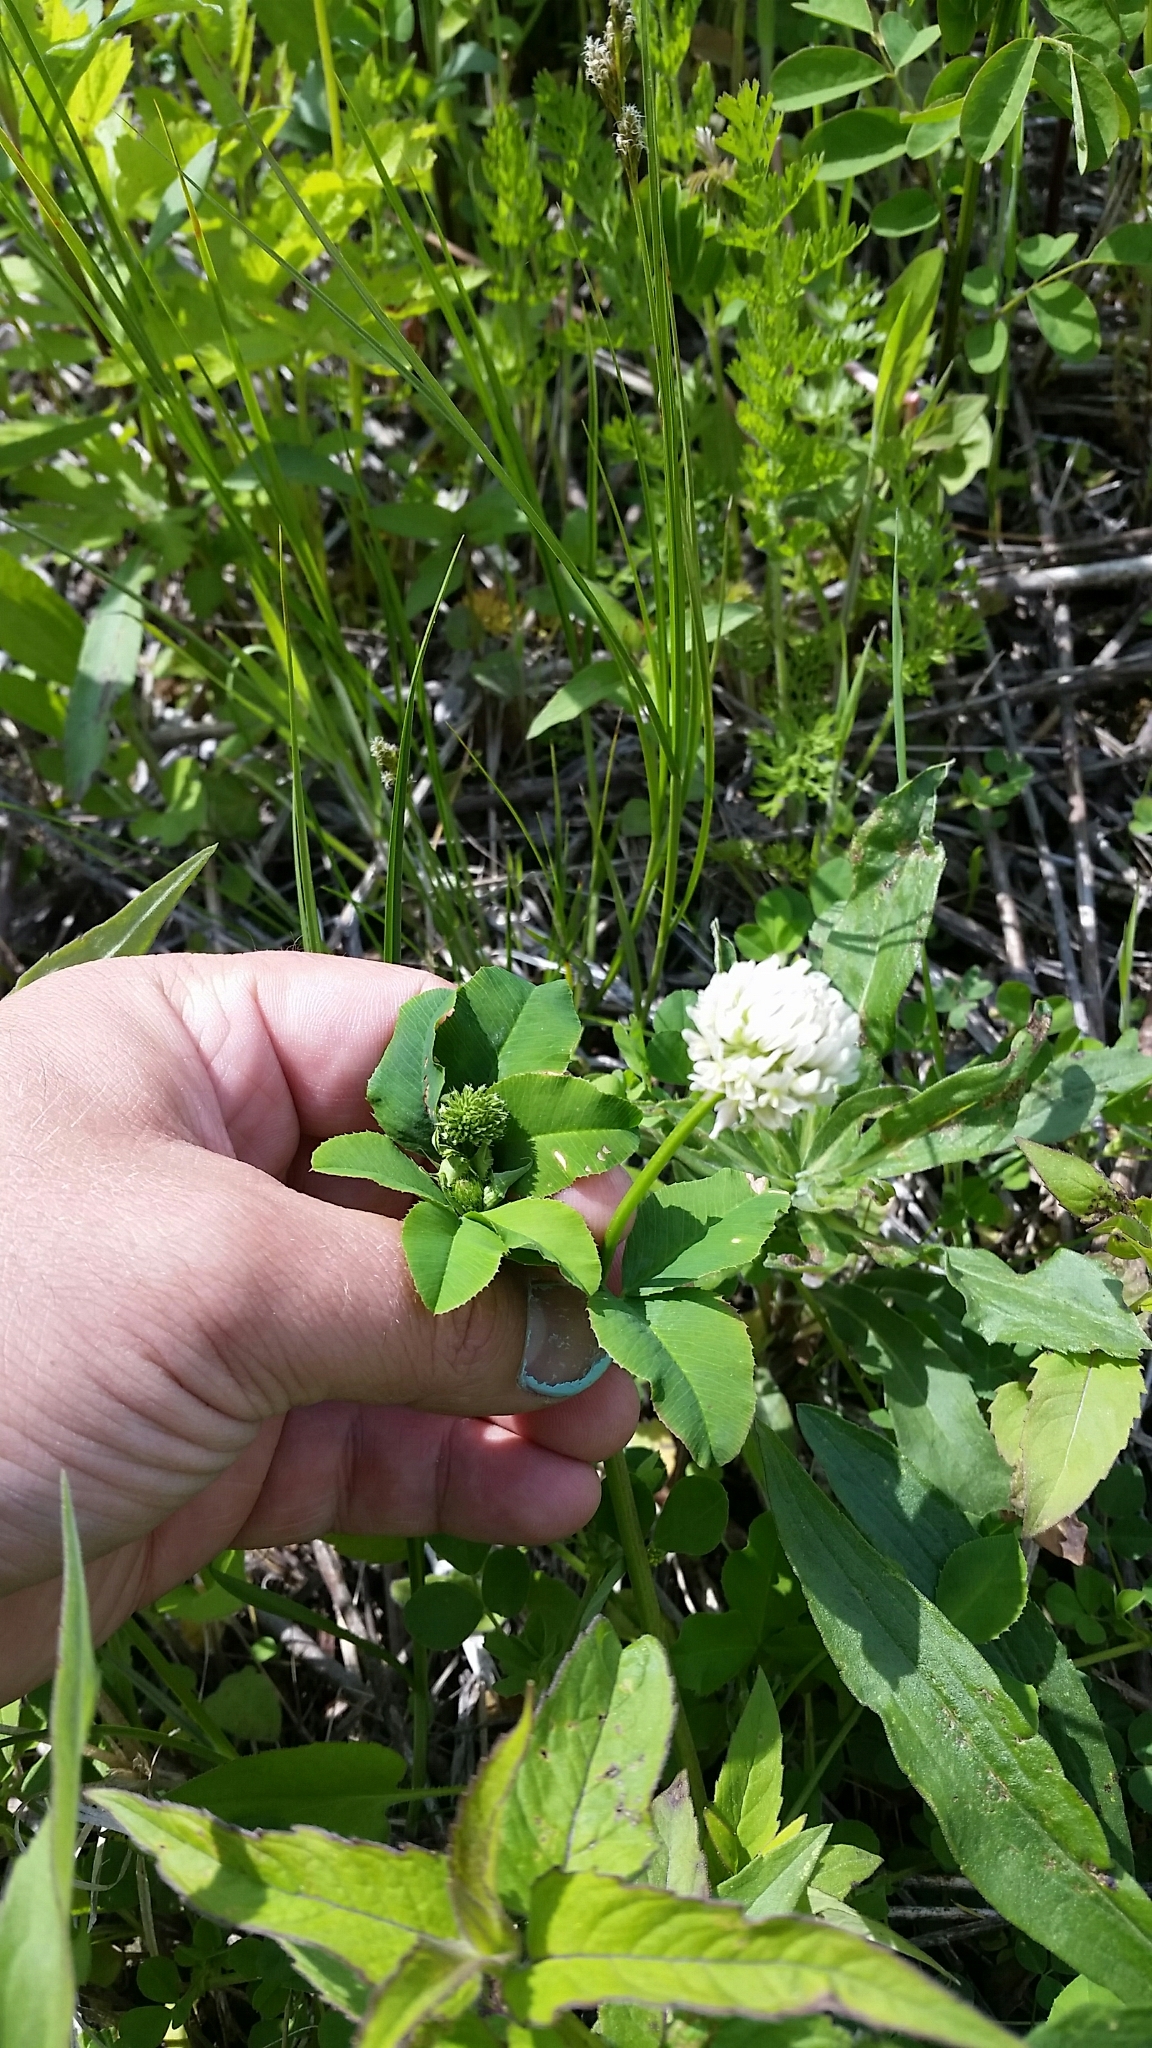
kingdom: Plantae
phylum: Tracheophyta
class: Magnoliopsida
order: Fabales
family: Fabaceae
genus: Trifolium
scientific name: Trifolium repens
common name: White clover
